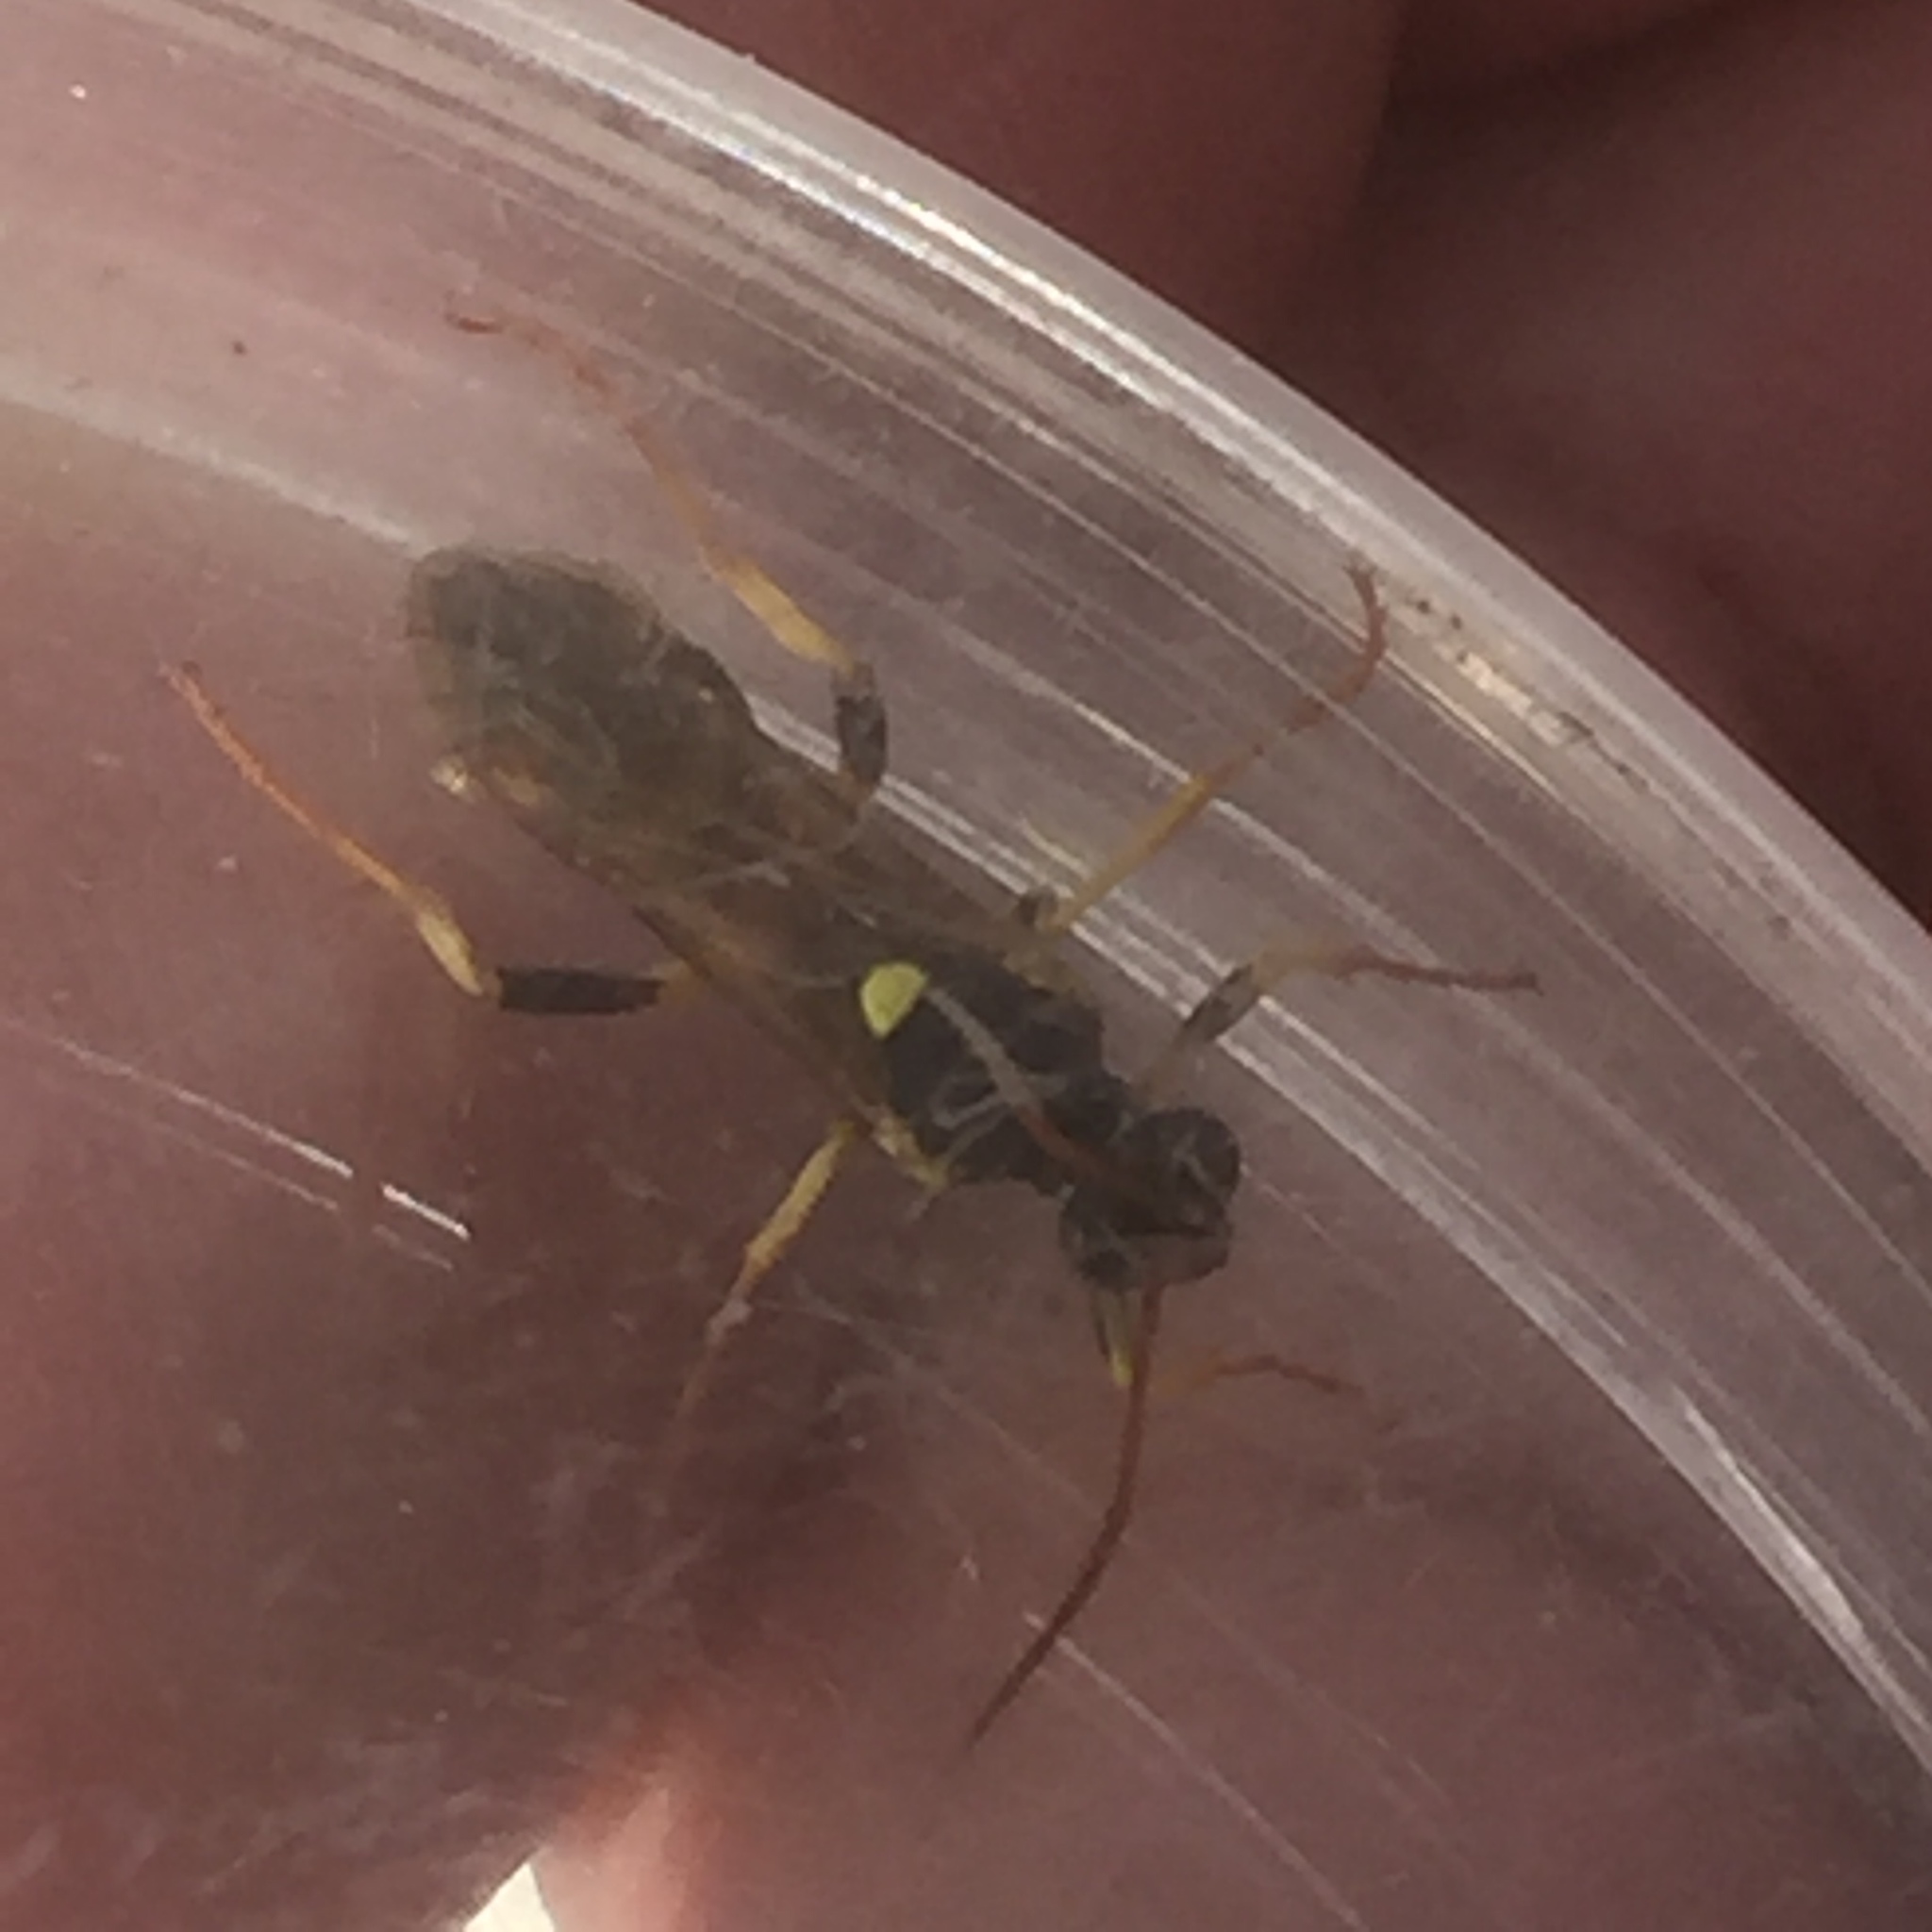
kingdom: Animalia
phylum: Arthropoda
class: Insecta
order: Hymenoptera
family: Ichneumonidae
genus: Amblyteles
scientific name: Amblyteles armatorius
